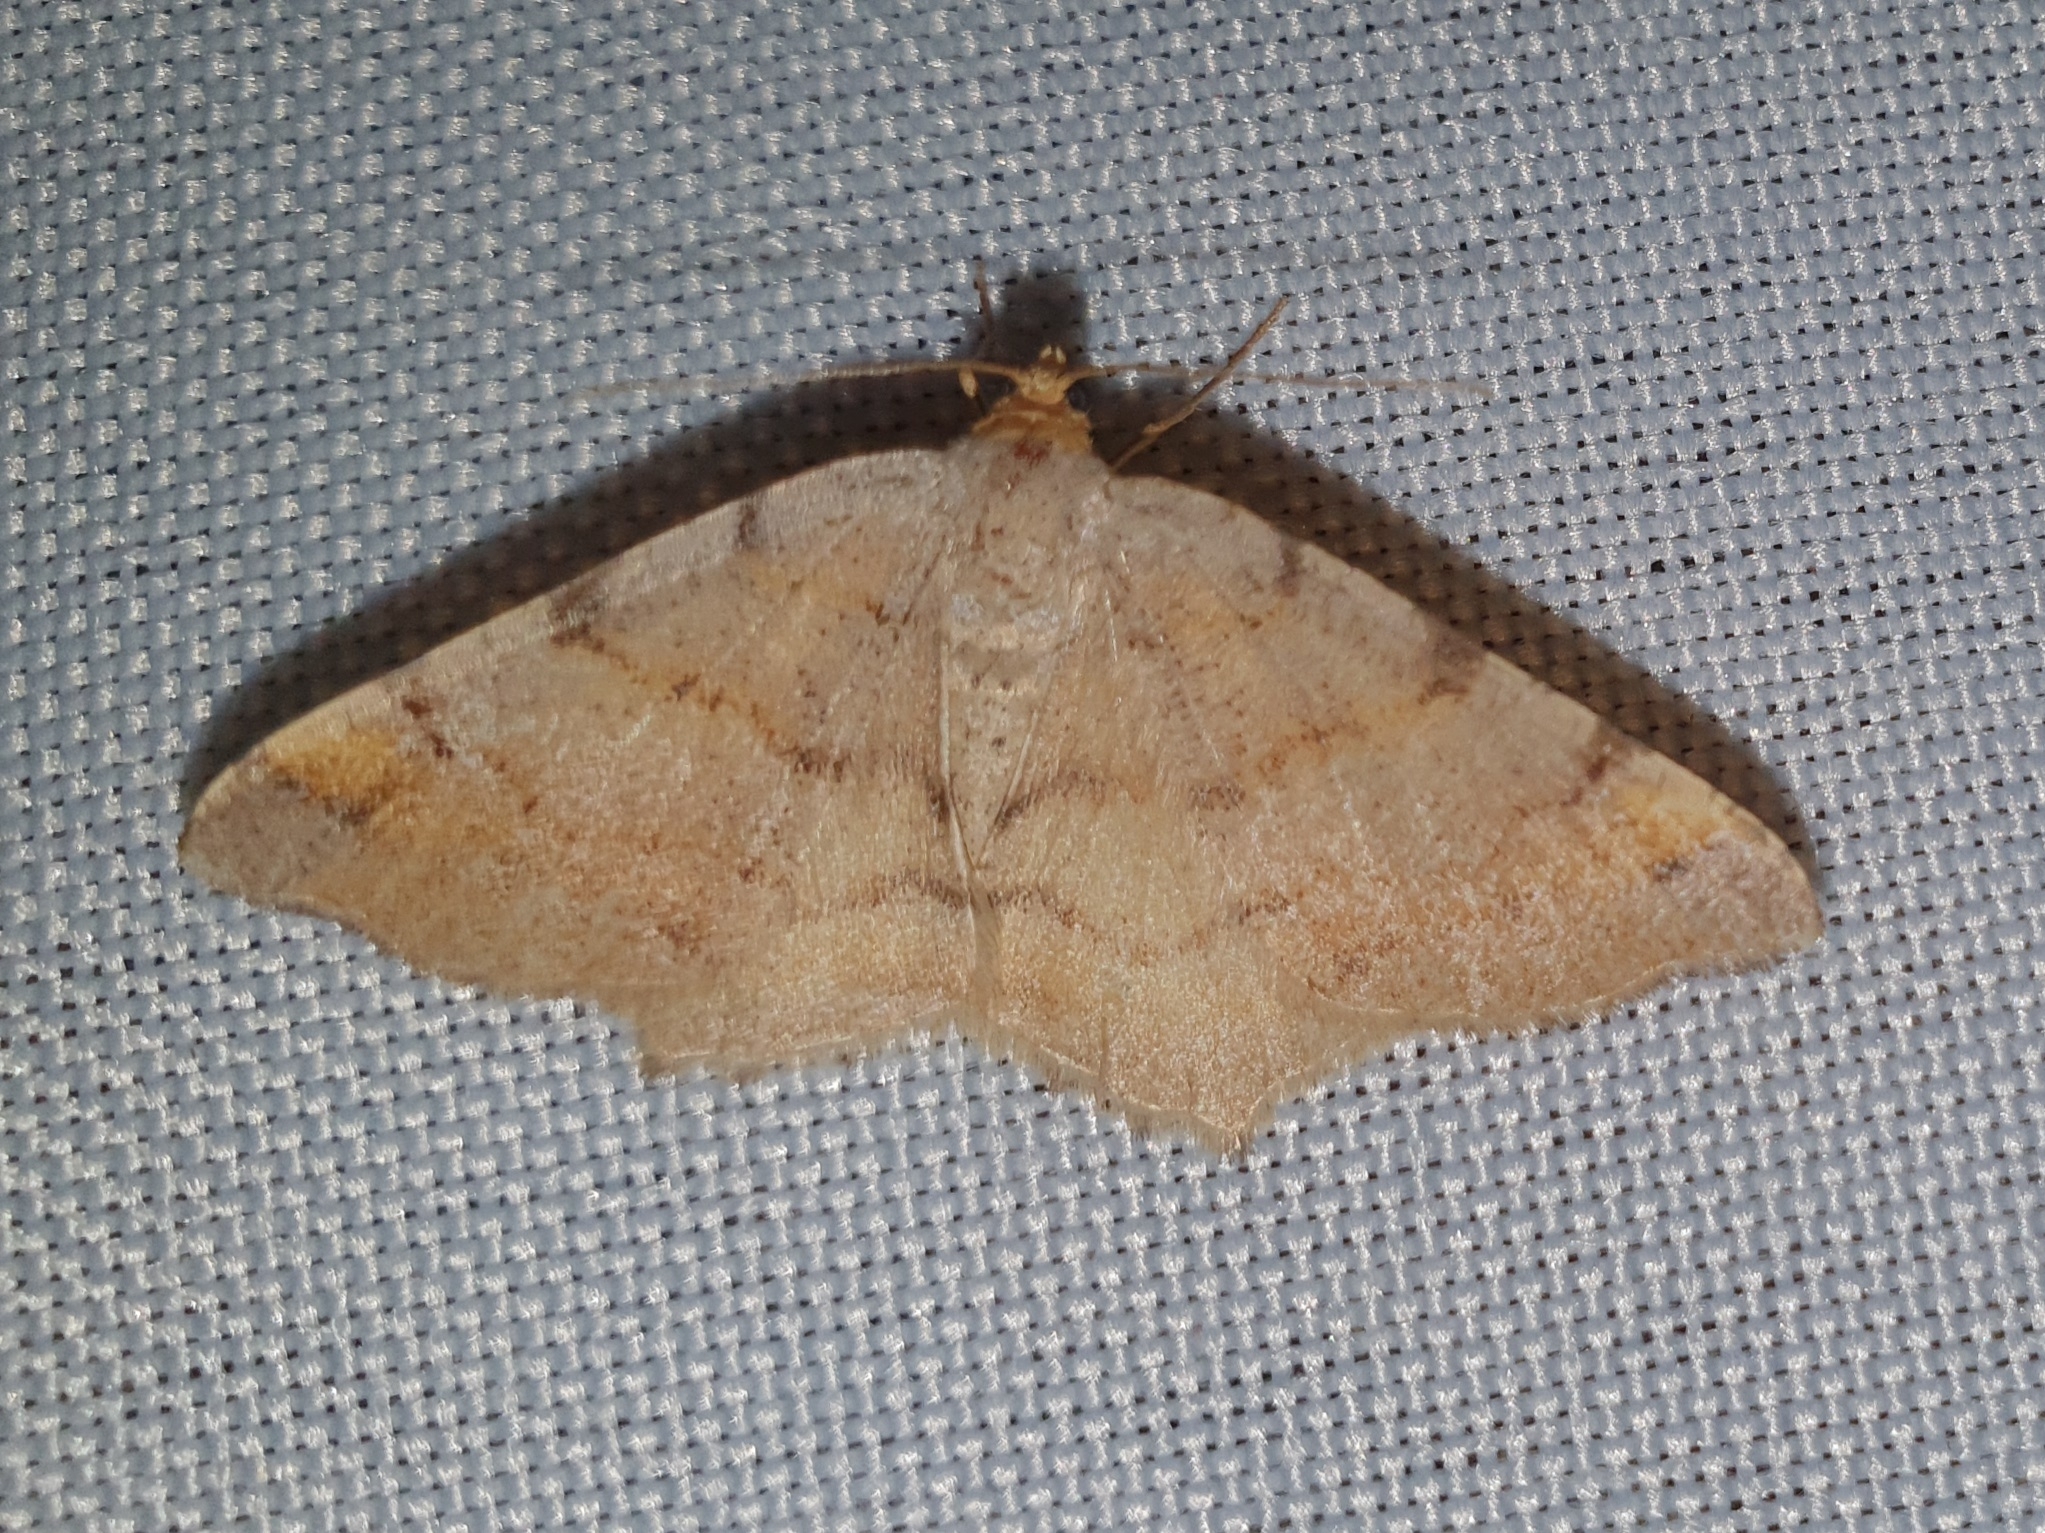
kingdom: Animalia
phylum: Arthropoda
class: Insecta
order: Lepidoptera
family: Geometridae
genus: Macaria
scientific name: Macaria liturata
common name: Tawny-barred angle
